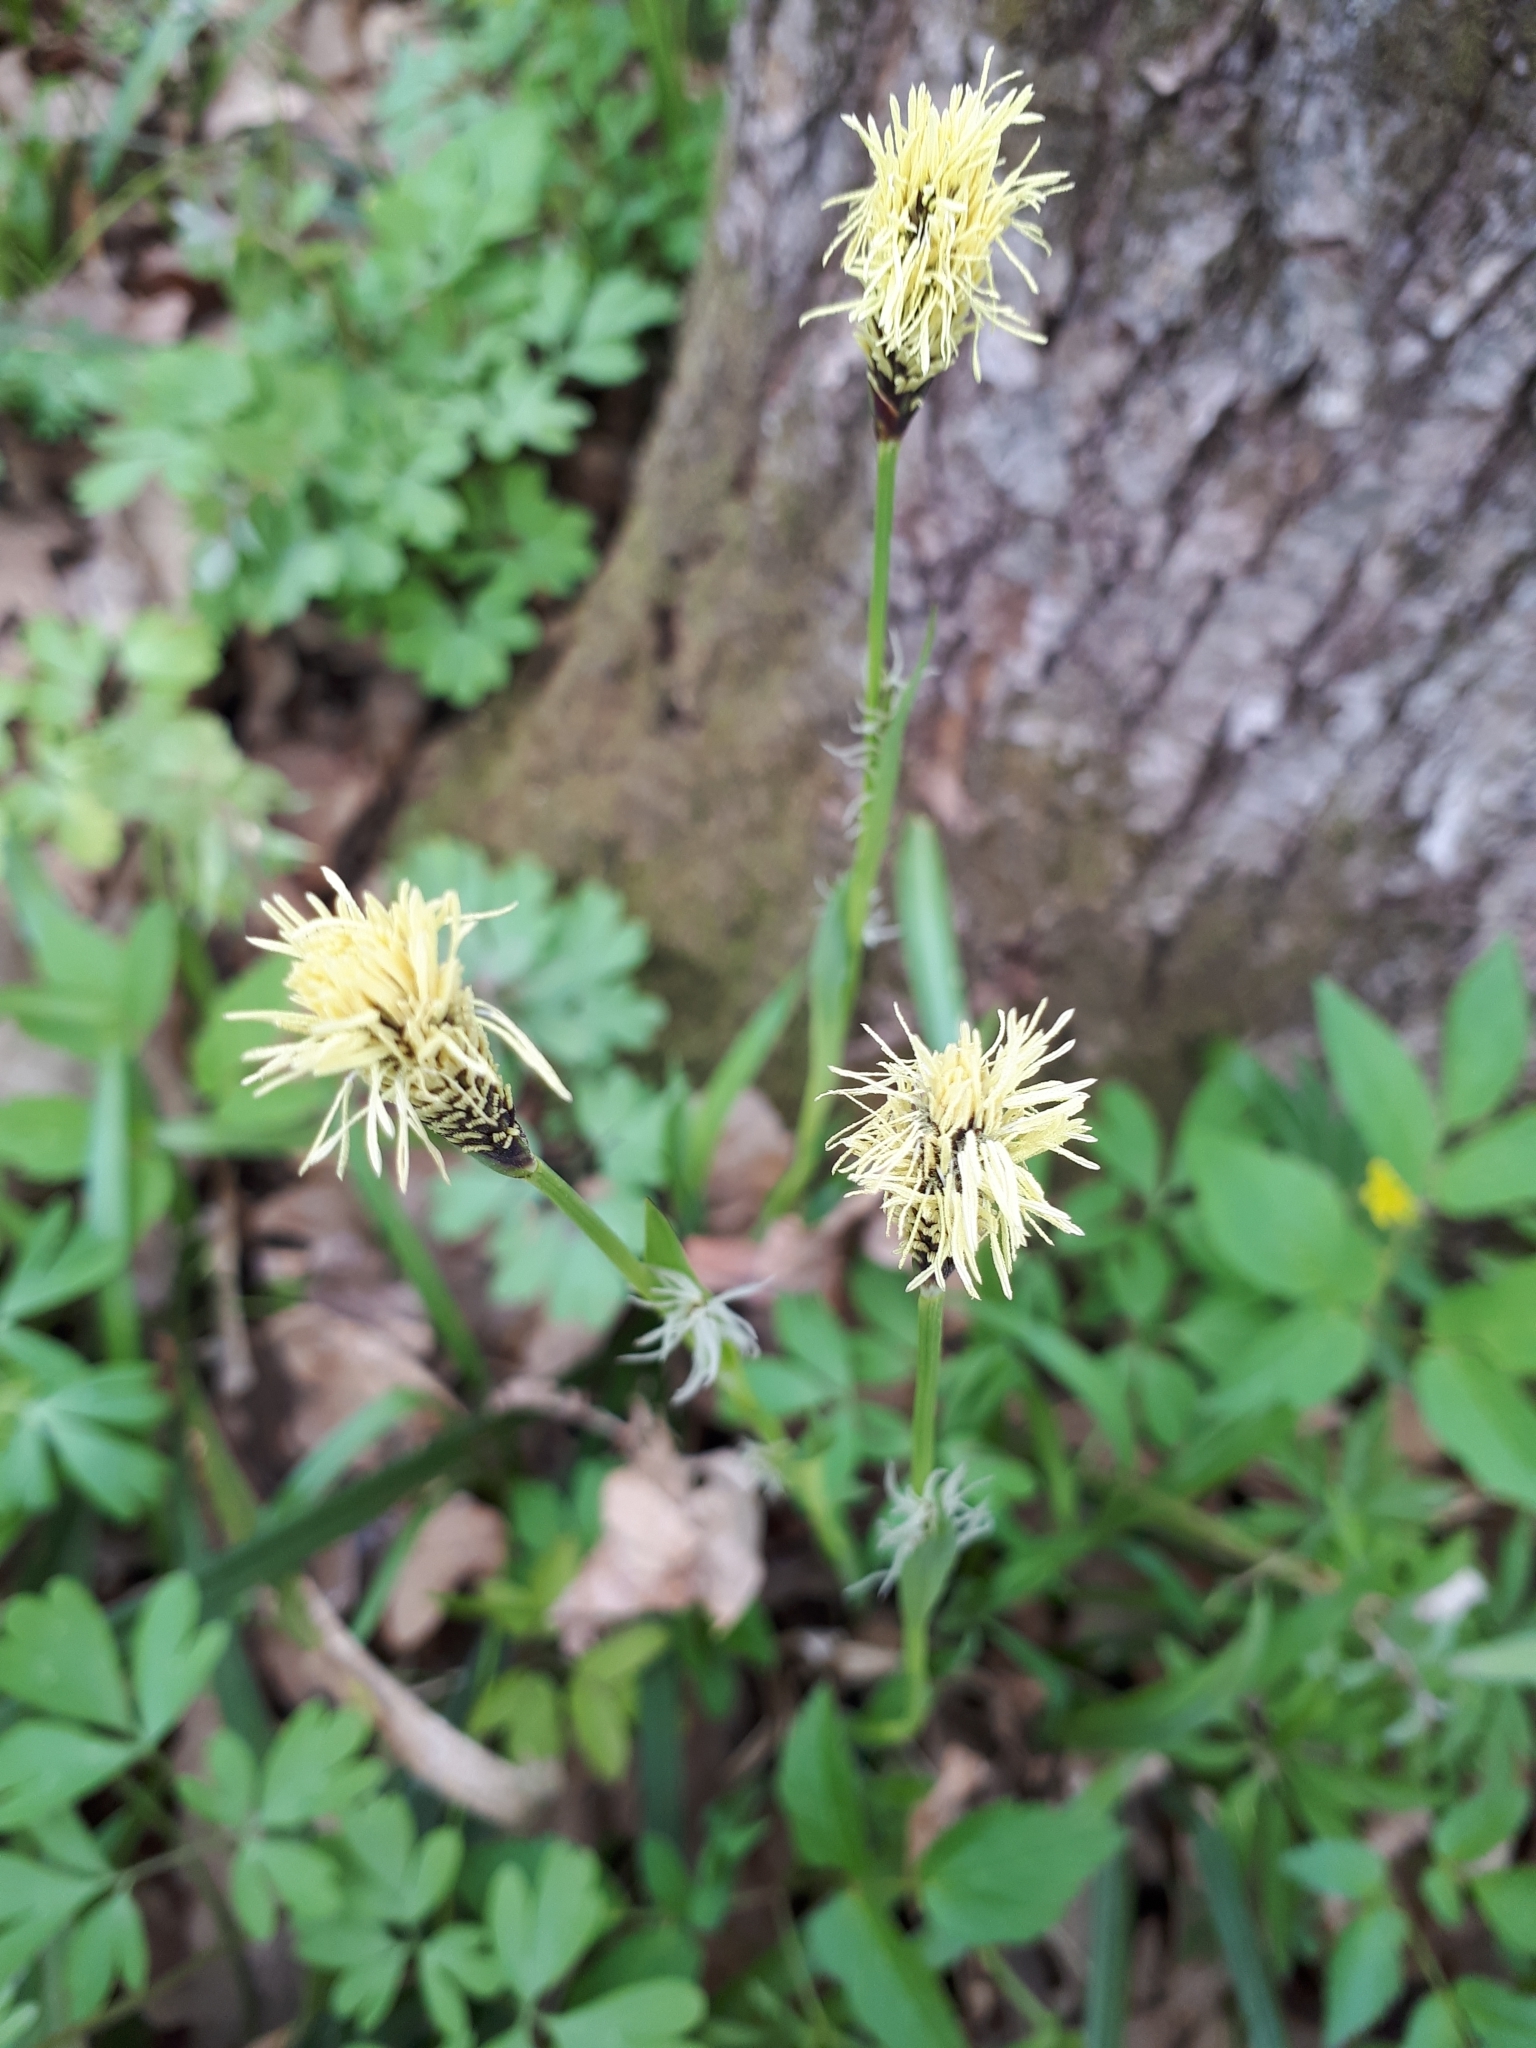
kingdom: Plantae
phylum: Tracheophyta
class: Liliopsida
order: Poales
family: Cyperaceae
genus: Carex
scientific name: Carex pilosa
